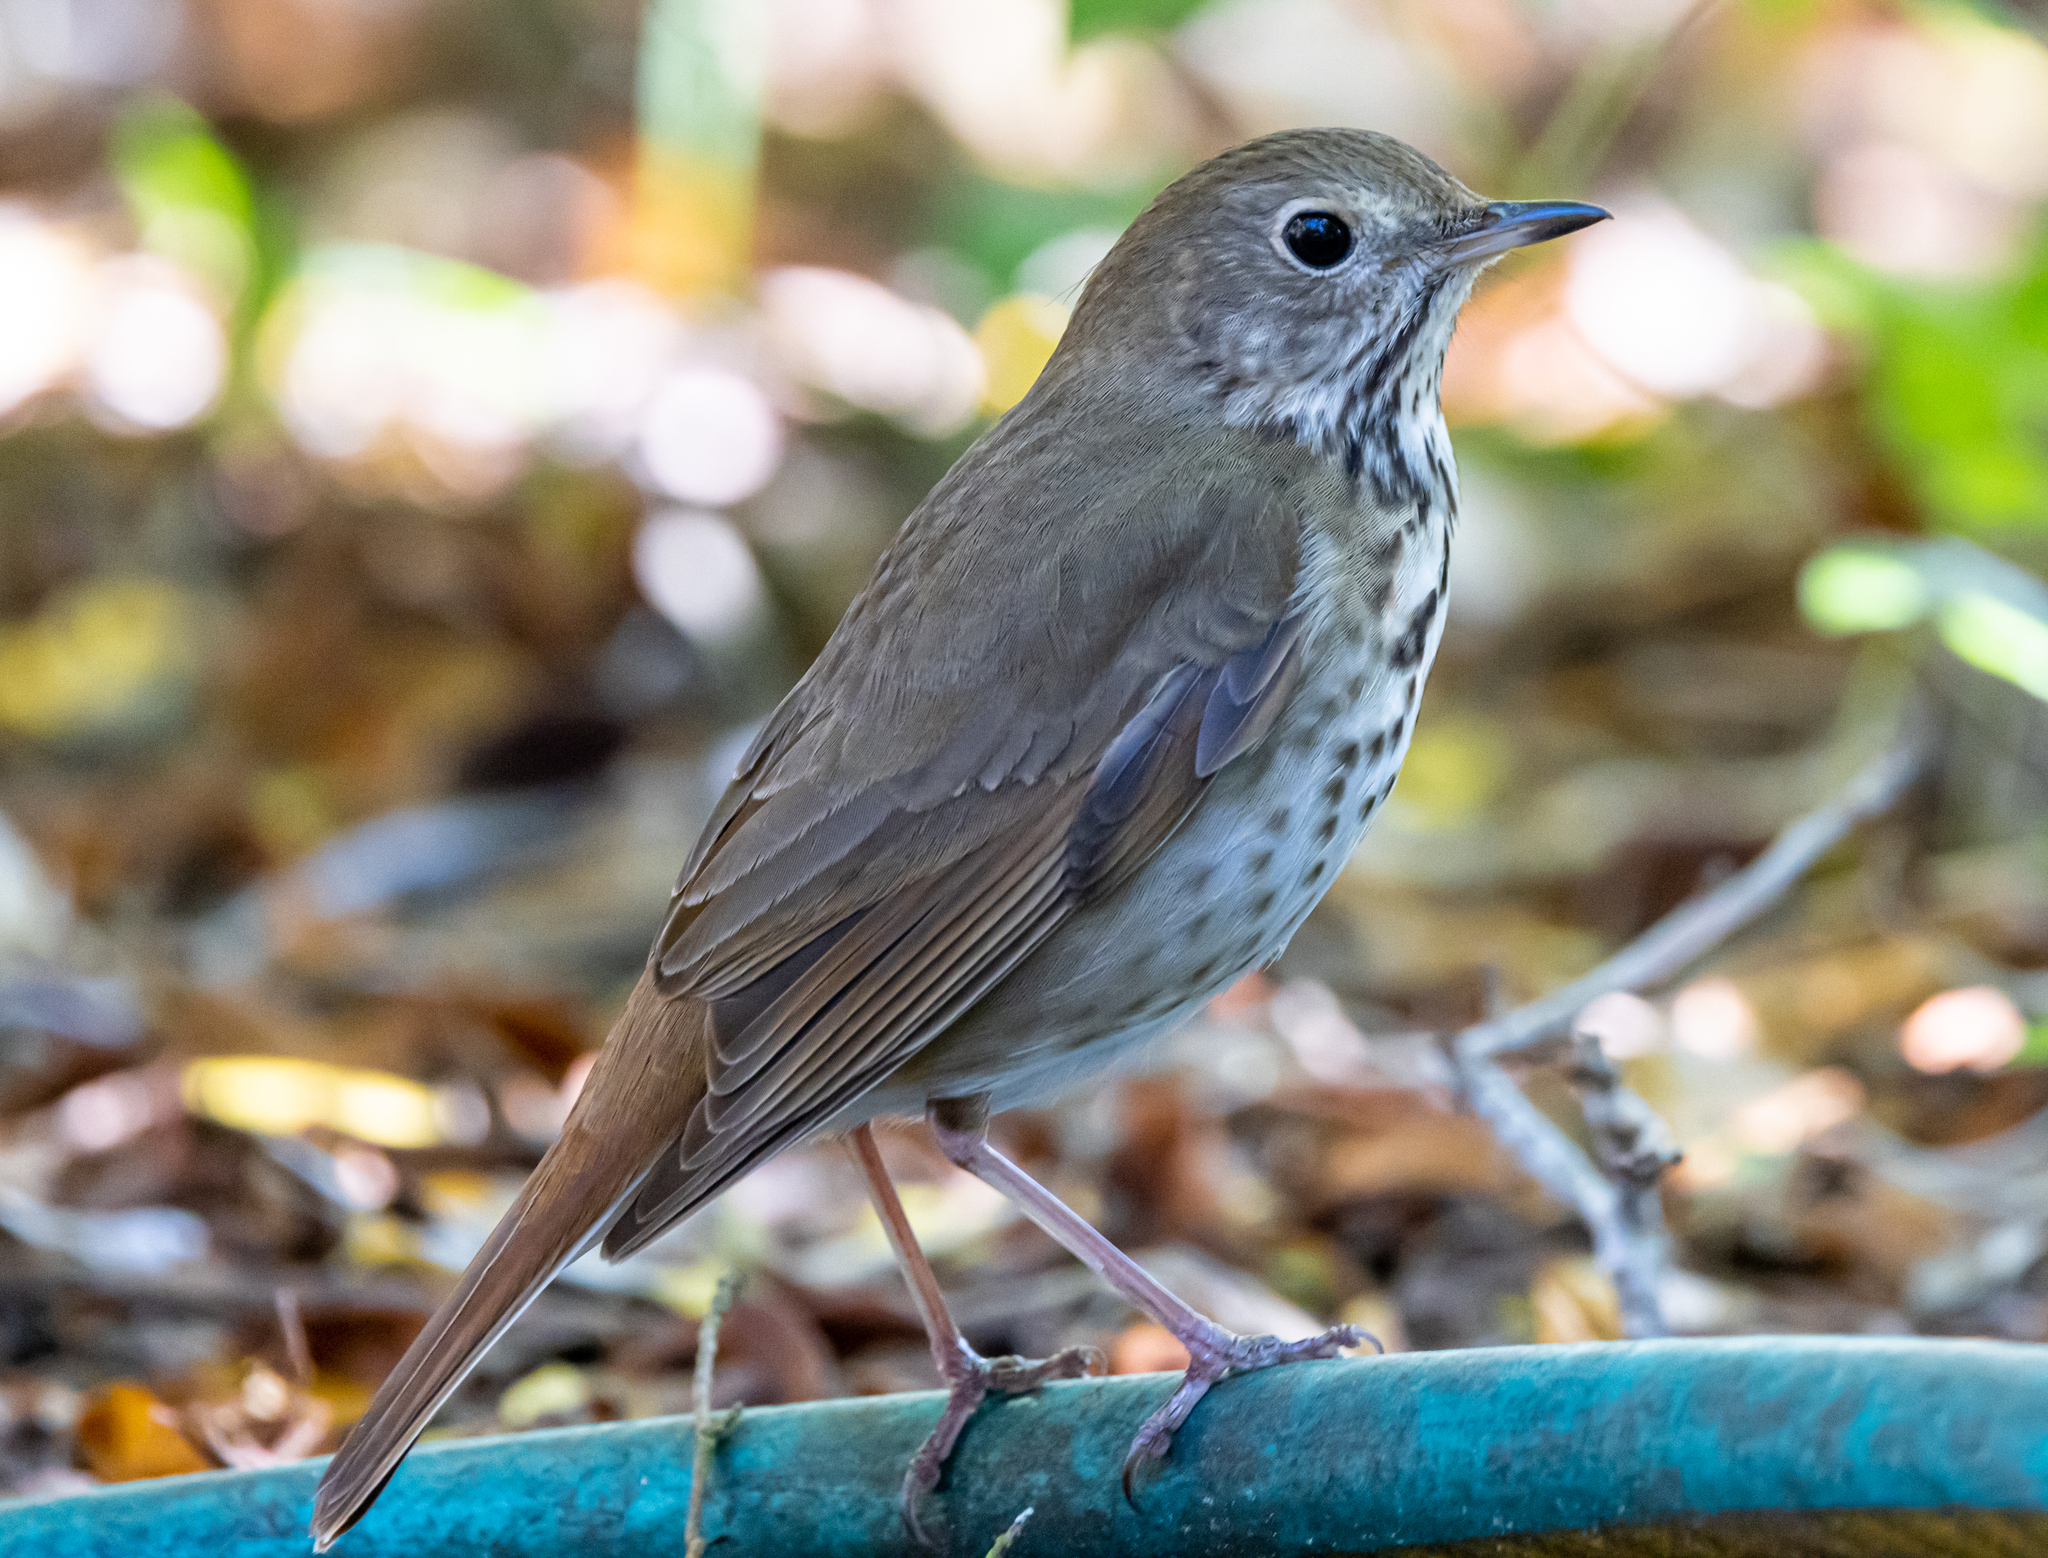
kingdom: Animalia
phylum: Chordata
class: Aves
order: Passeriformes
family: Turdidae
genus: Catharus
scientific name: Catharus guttatus
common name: Hermit thrush
